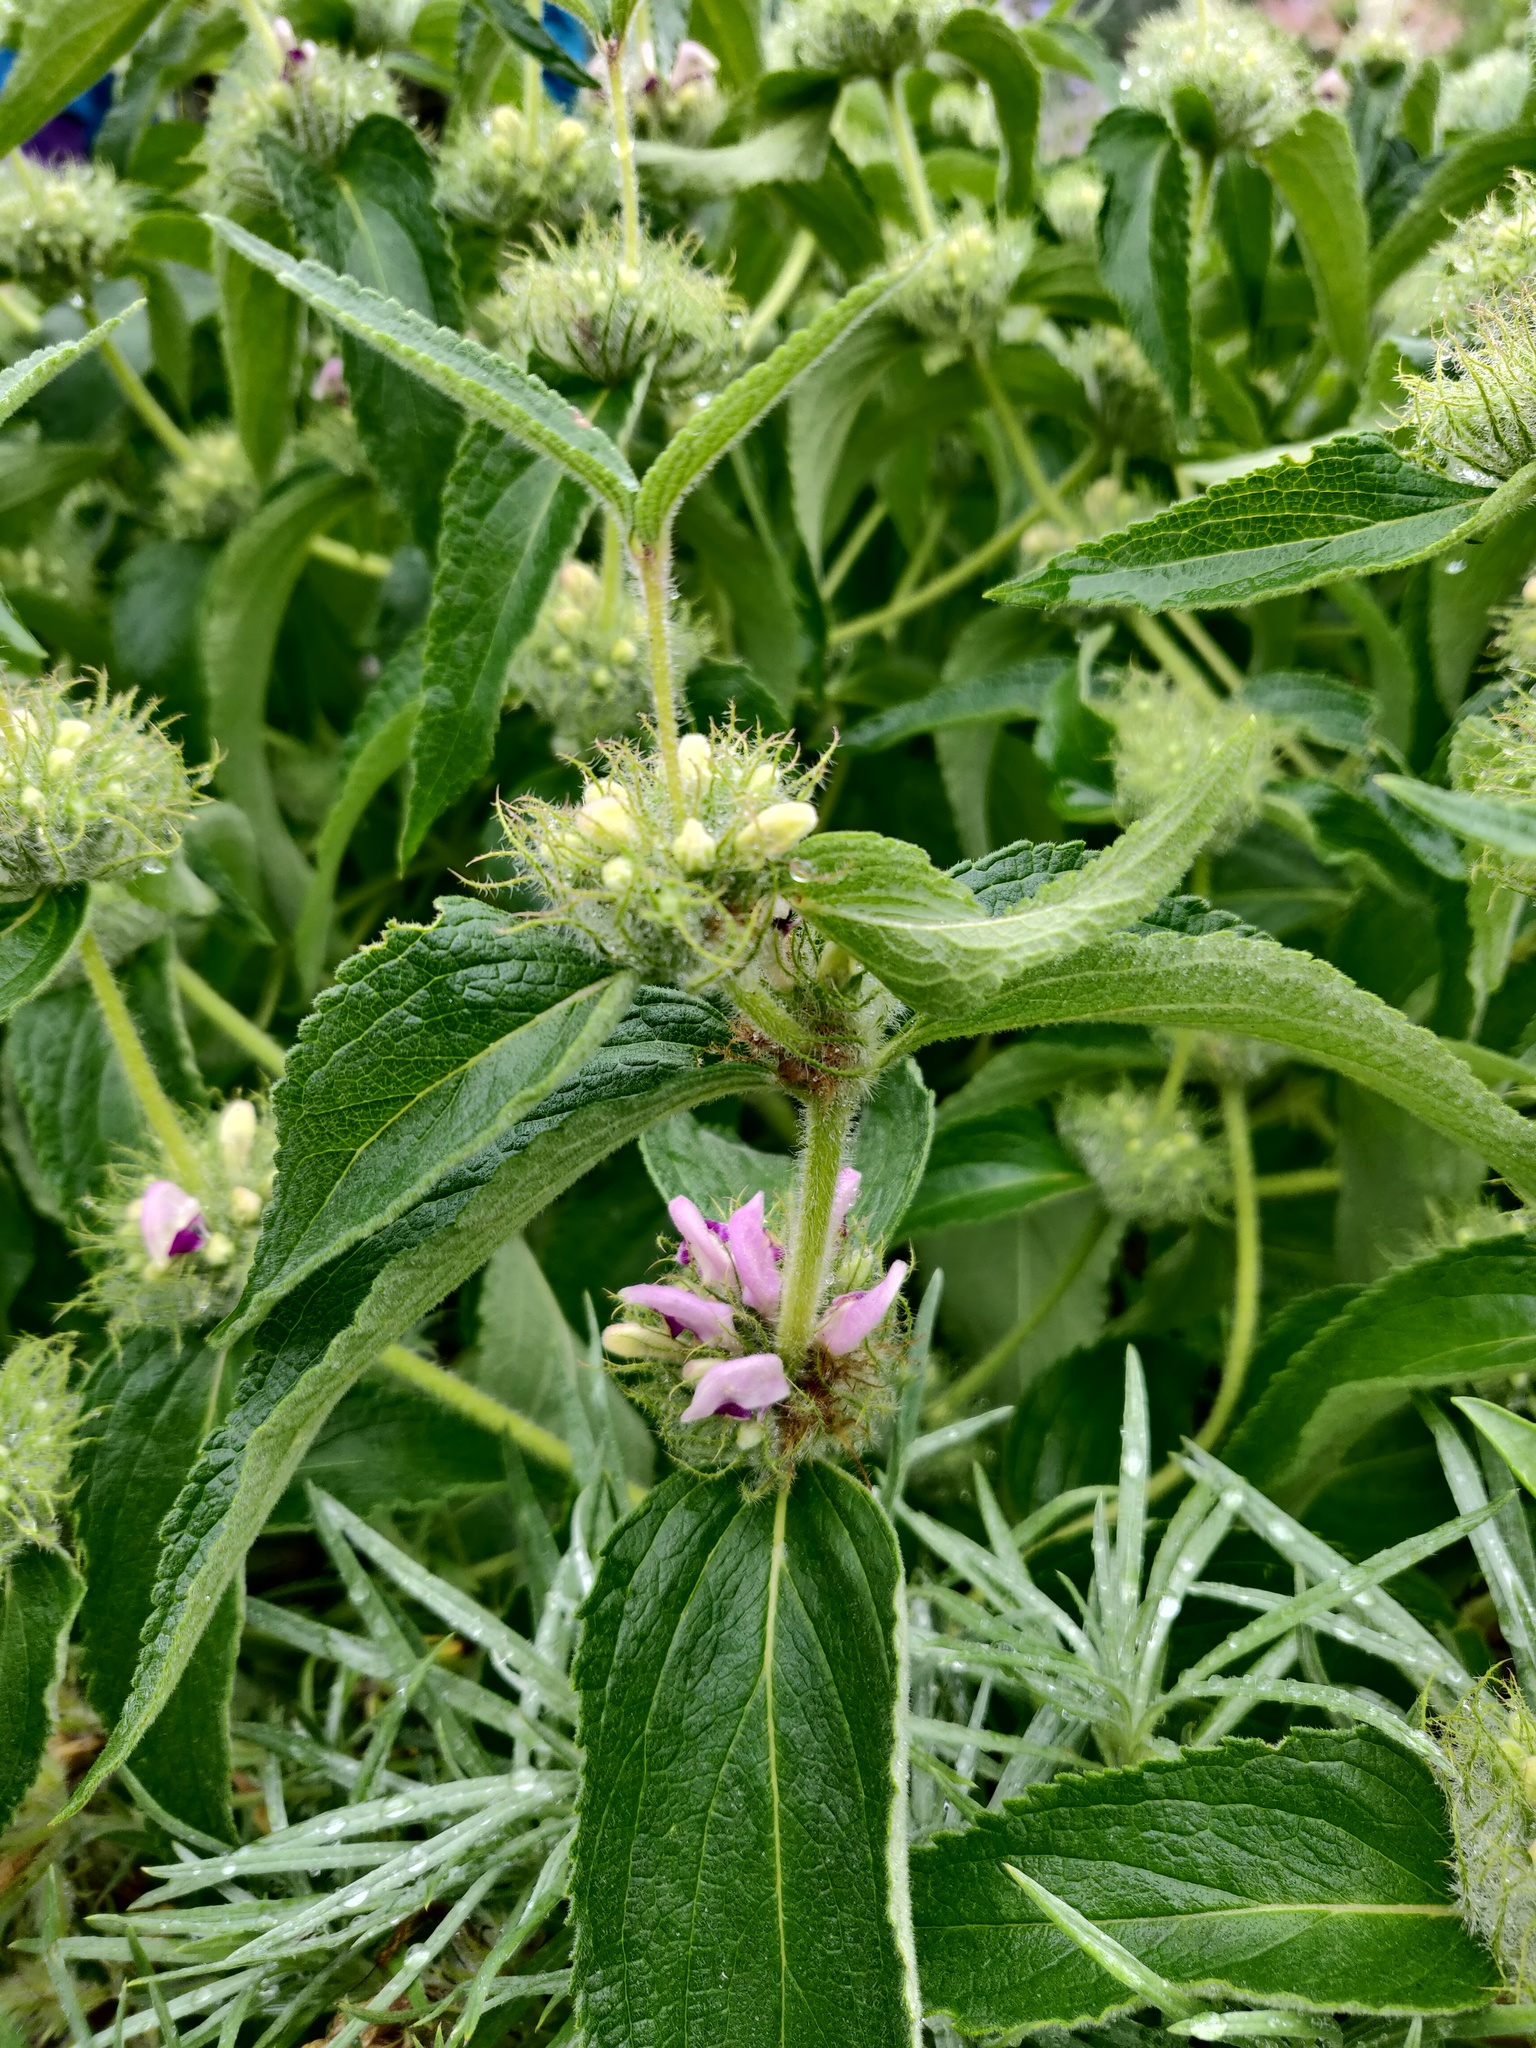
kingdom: Plantae
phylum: Tracheophyta
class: Magnoliopsida
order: Lamiales
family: Lamiaceae
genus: Phlomis
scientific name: Phlomis herba-venti
